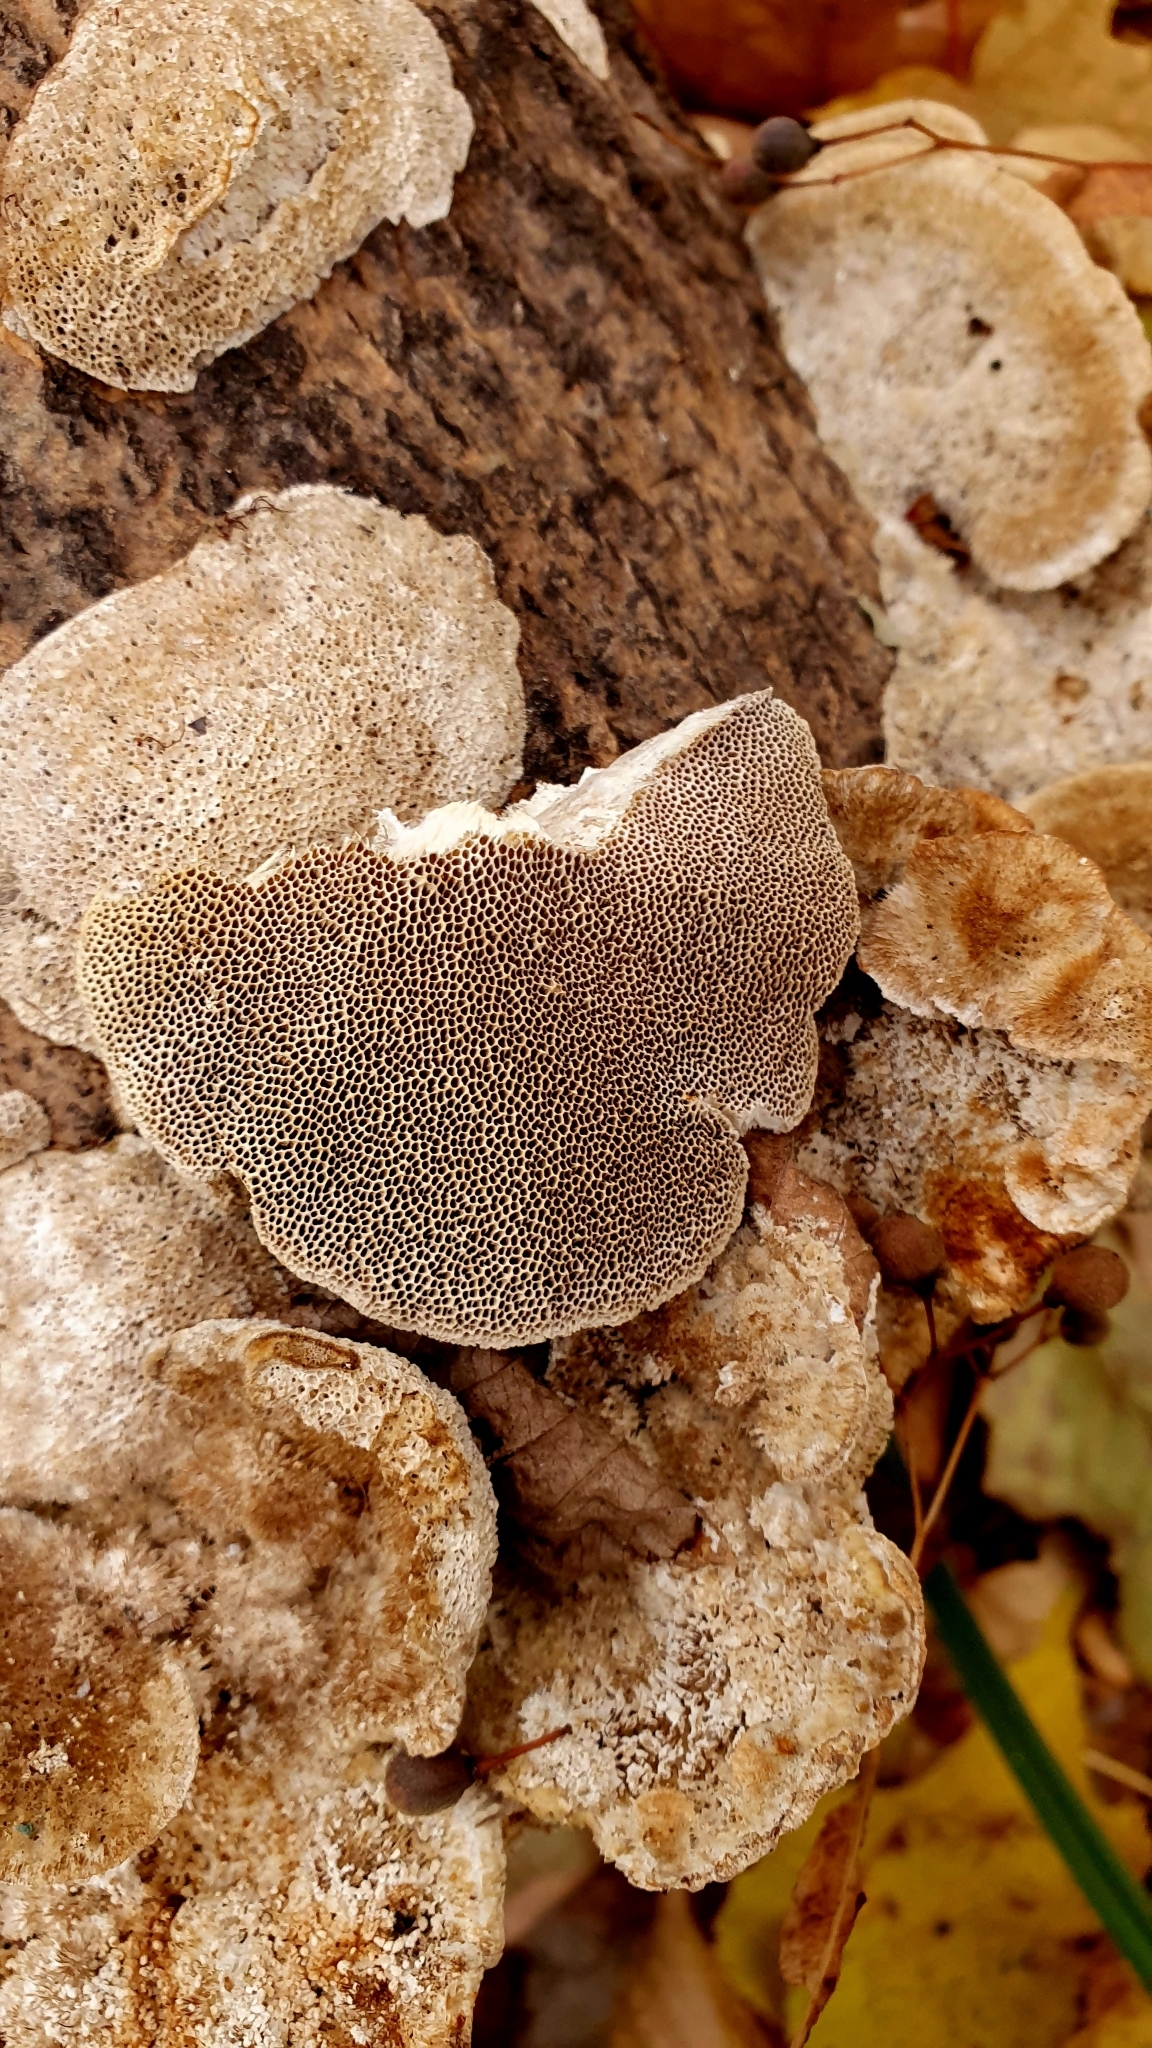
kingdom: Fungi
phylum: Basidiomycota
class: Agaricomycetes
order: Polyporales
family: Polyporaceae
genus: Trametes
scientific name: Trametes trogii
